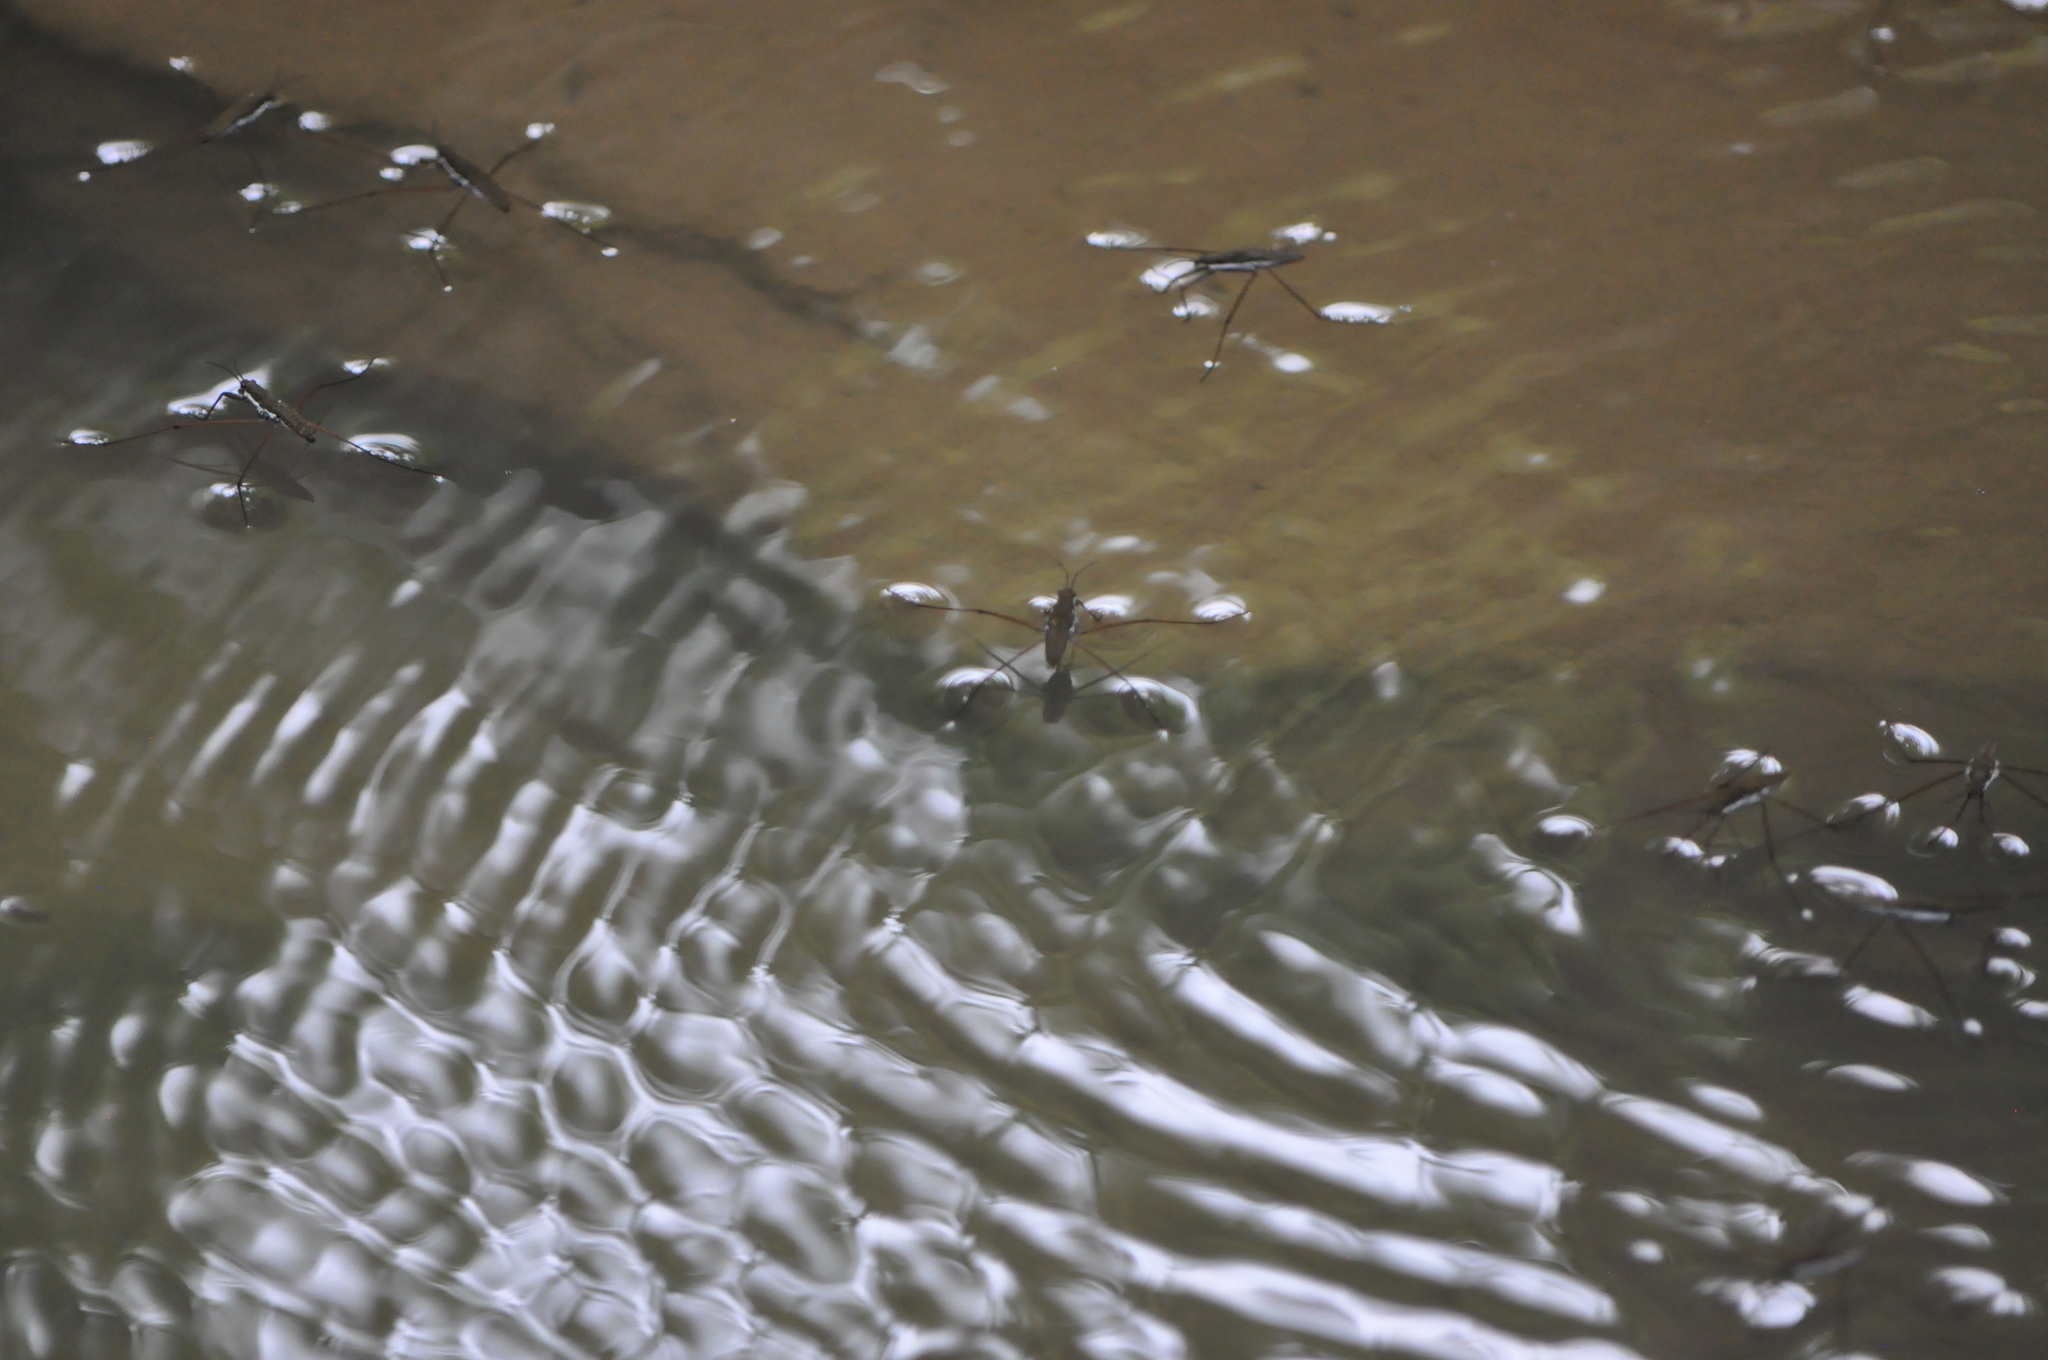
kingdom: Animalia
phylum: Arthropoda
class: Insecta
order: Hemiptera
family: Gerridae
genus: Aquarius
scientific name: Aquarius
